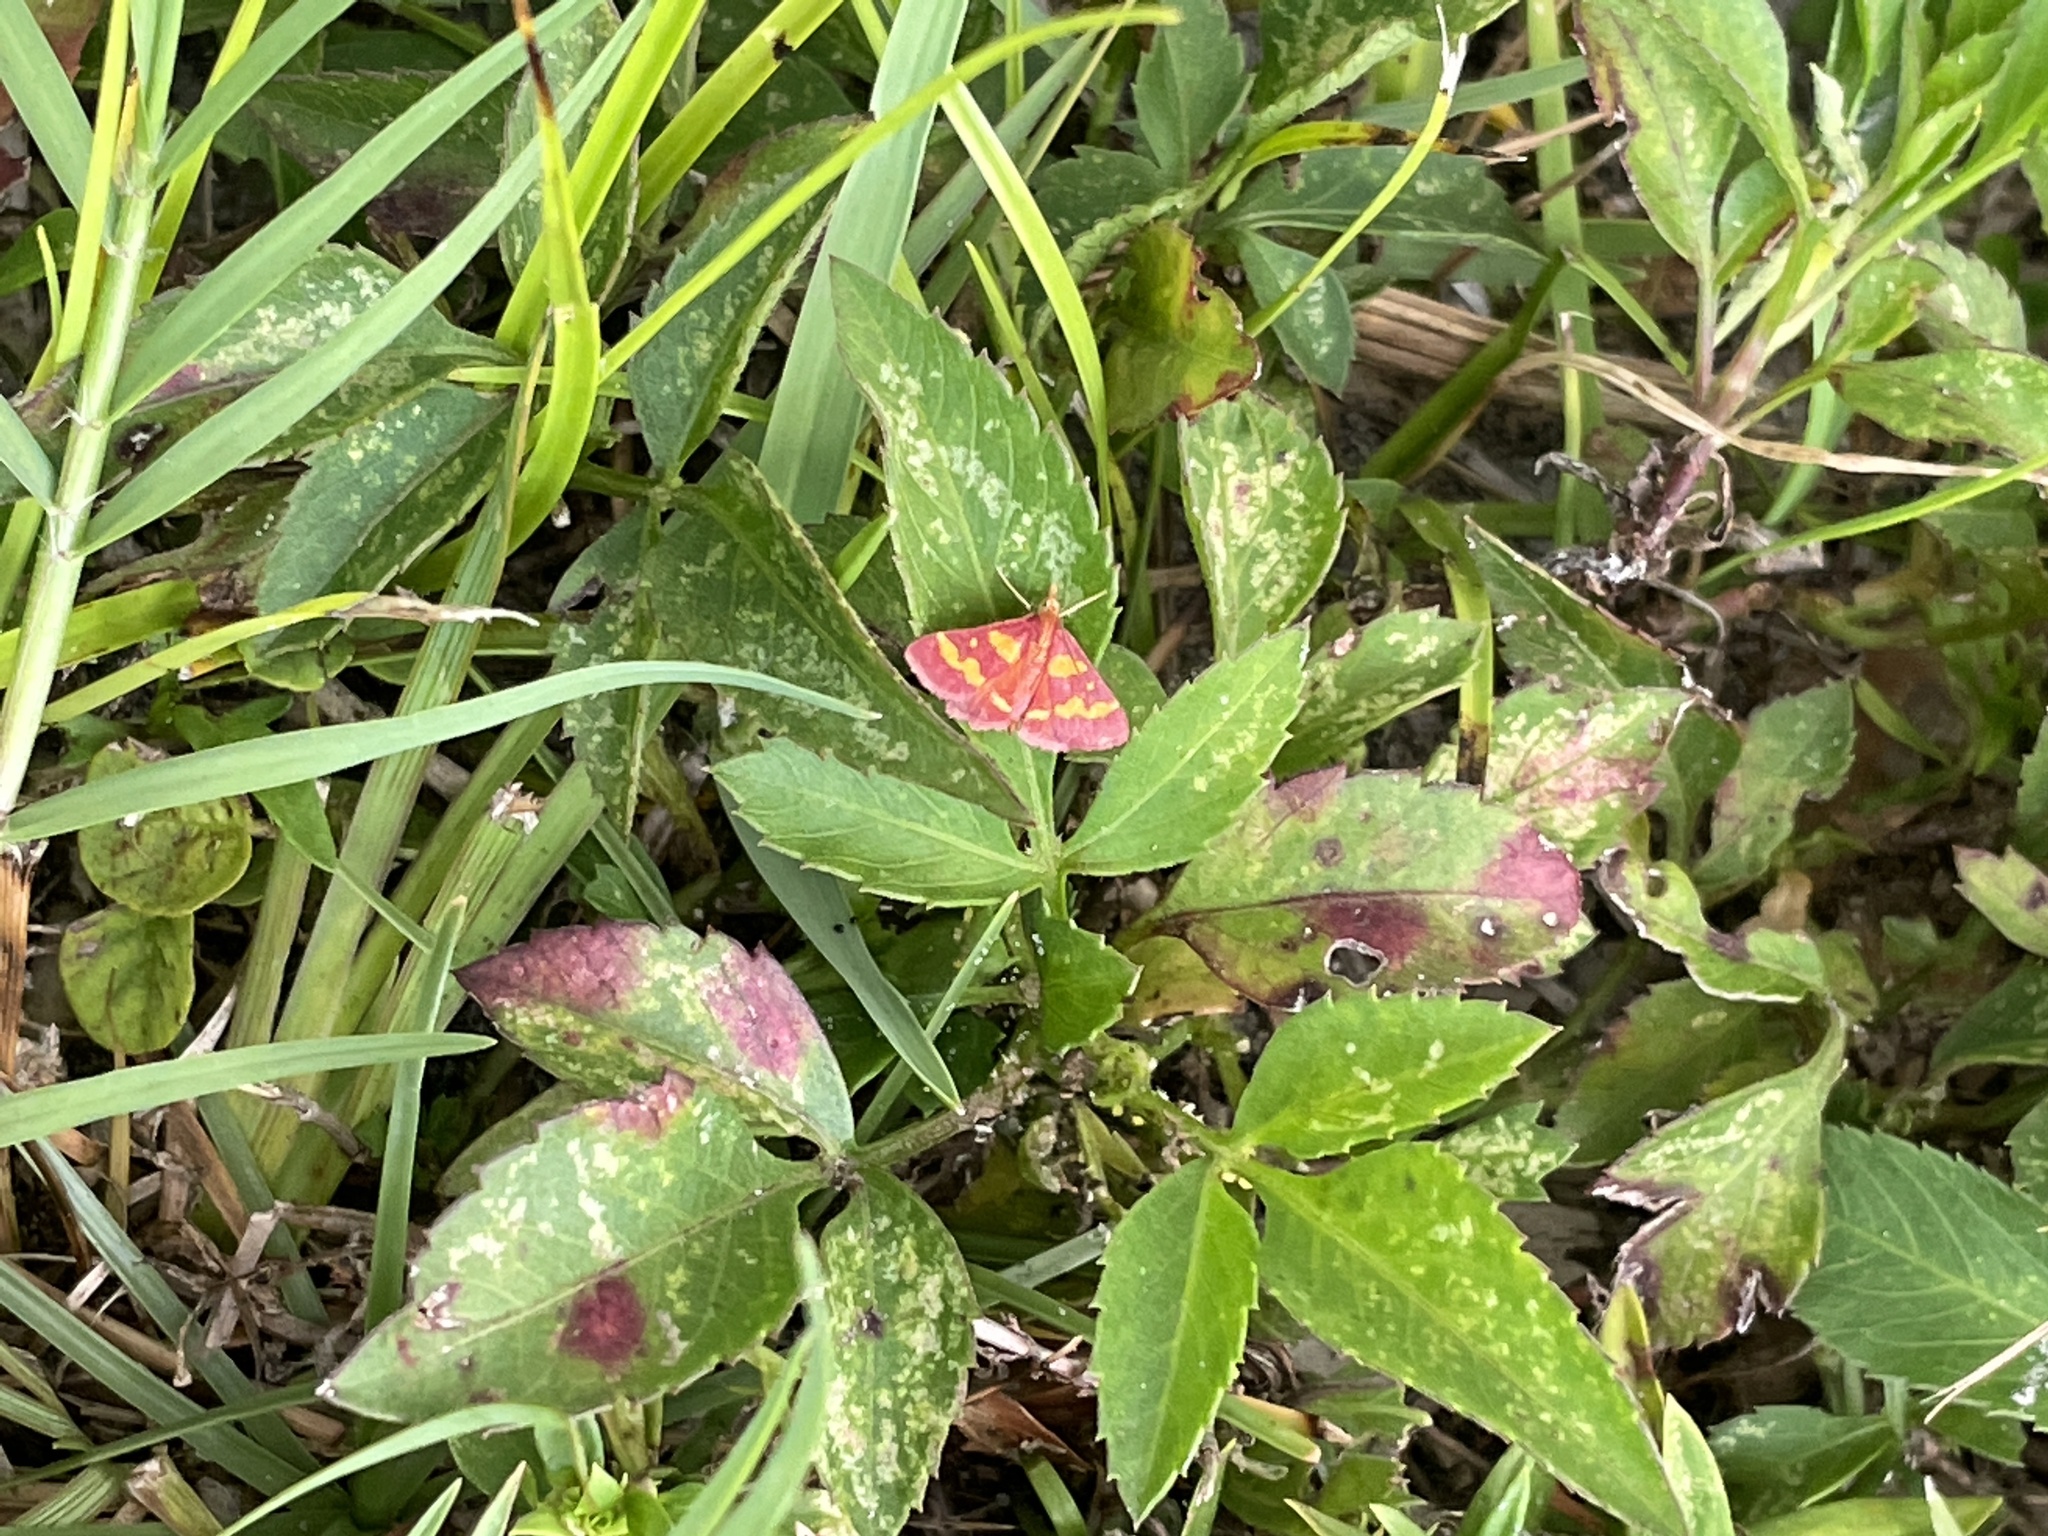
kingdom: Animalia
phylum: Arthropoda
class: Insecta
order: Lepidoptera
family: Crambidae
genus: Pyrausta
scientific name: Pyrausta tyralis
